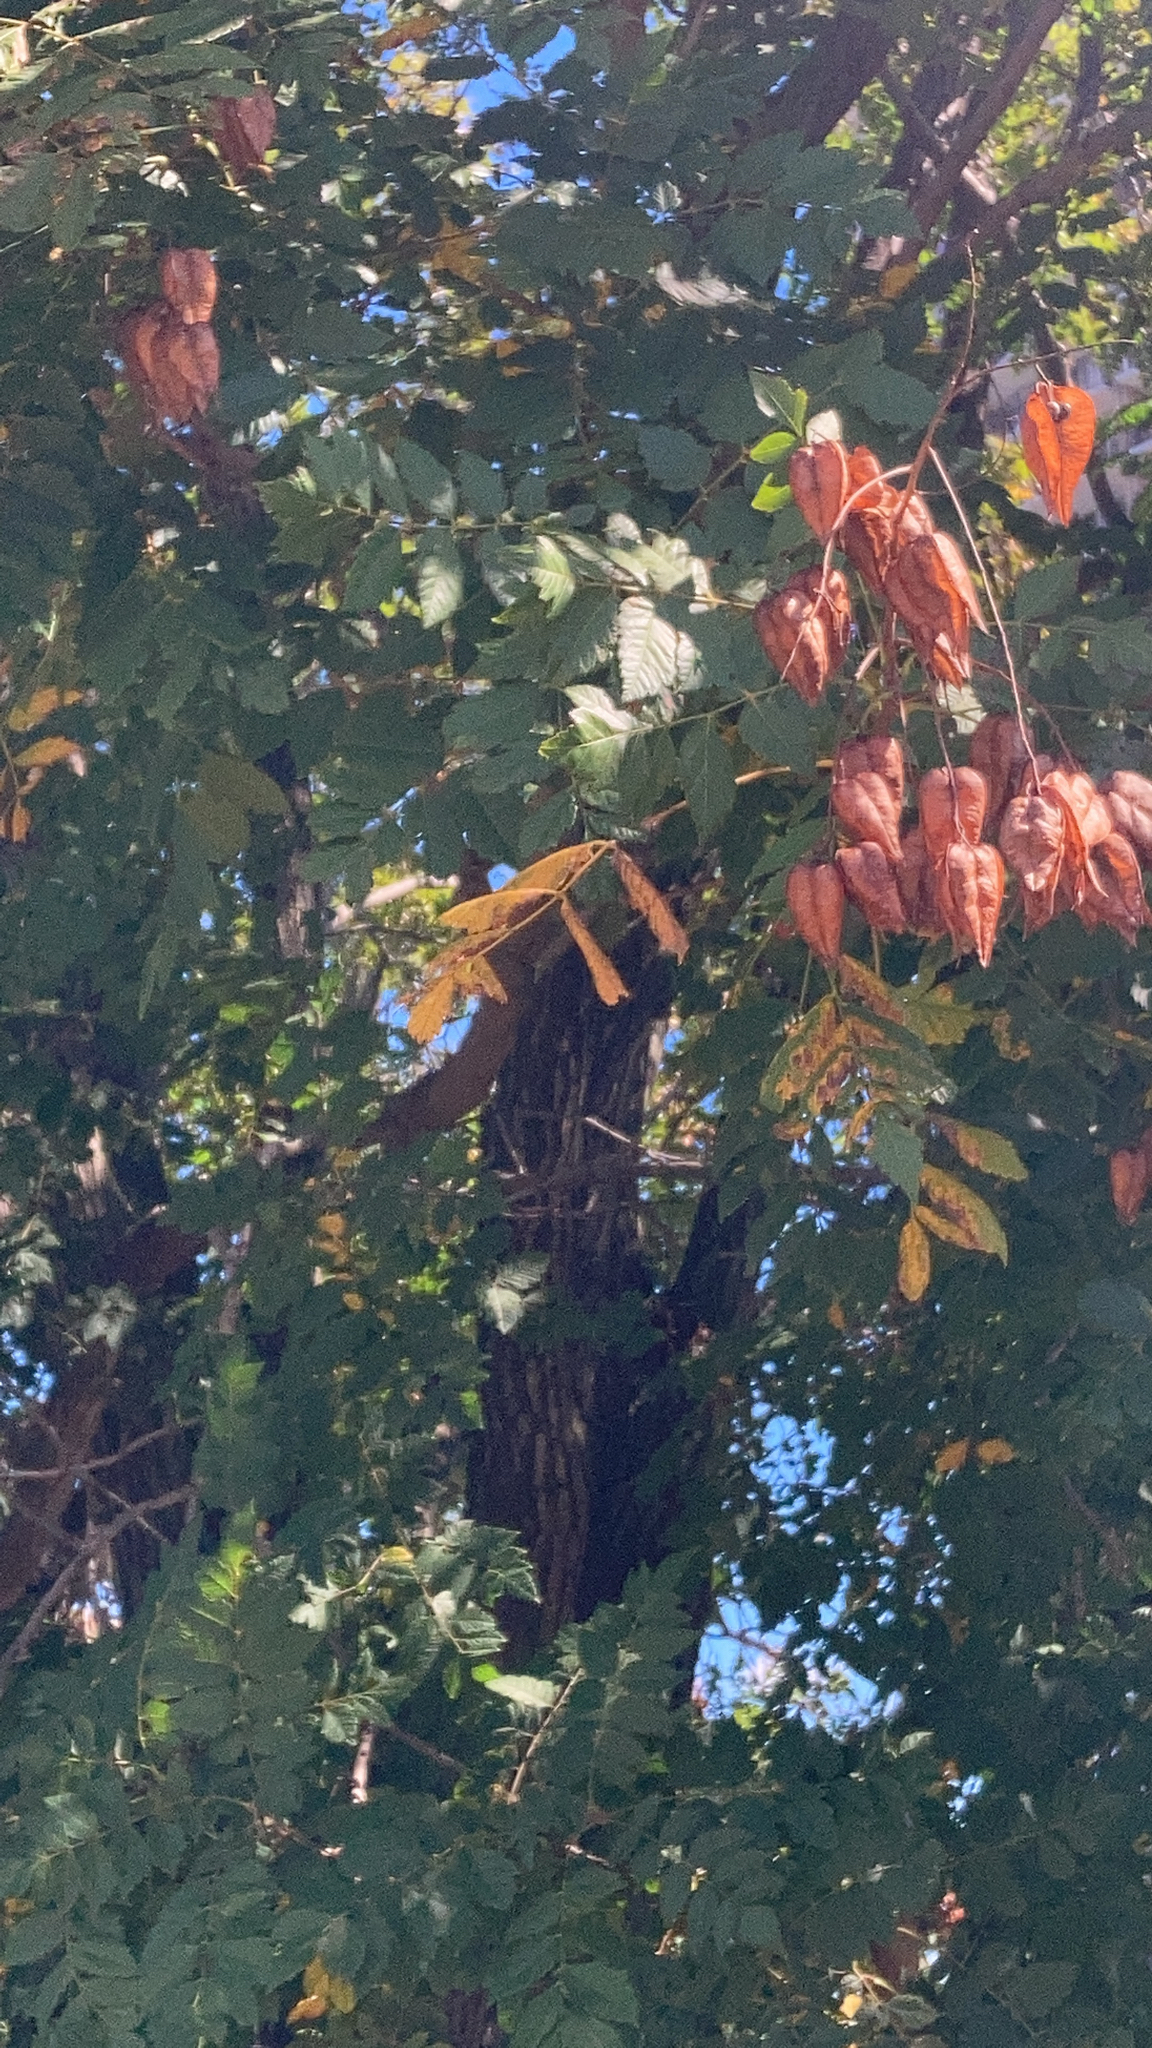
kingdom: Plantae
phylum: Tracheophyta
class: Magnoliopsida
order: Sapindales
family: Sapindaceae
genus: Koelreuteria
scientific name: Koelreuteria paniculata
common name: Pride-of-india
